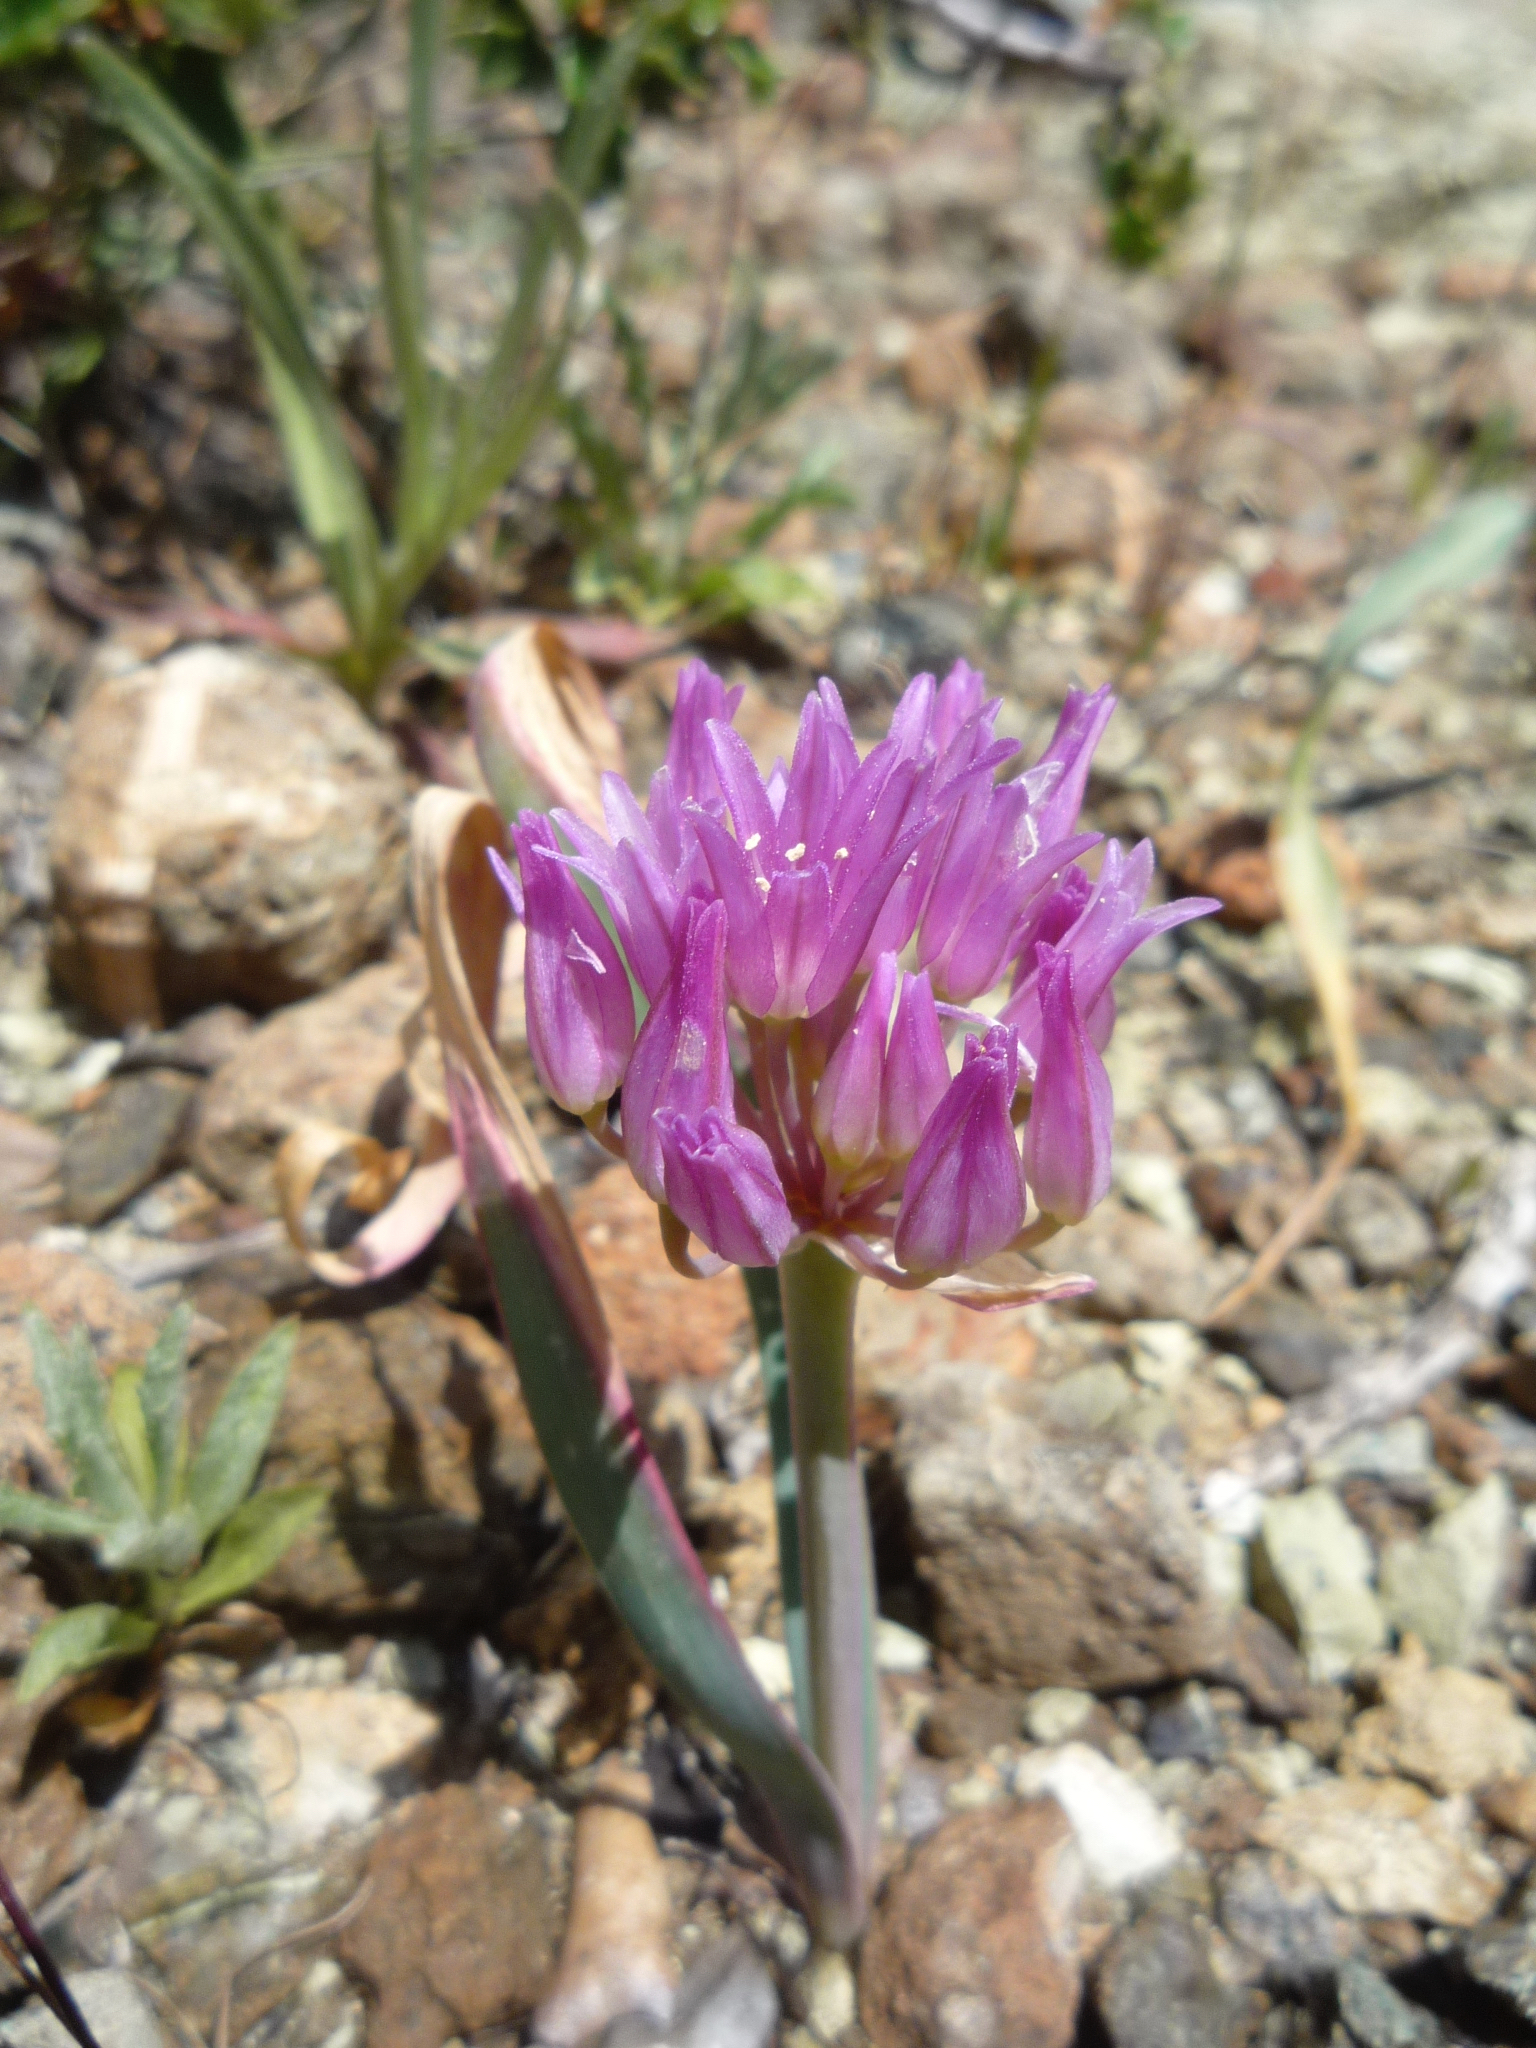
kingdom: Plantae
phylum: Tracheophyta
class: Liliopsida
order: Asparagales
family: Amaryllidaceae
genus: Allium
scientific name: Allium falcifolium
